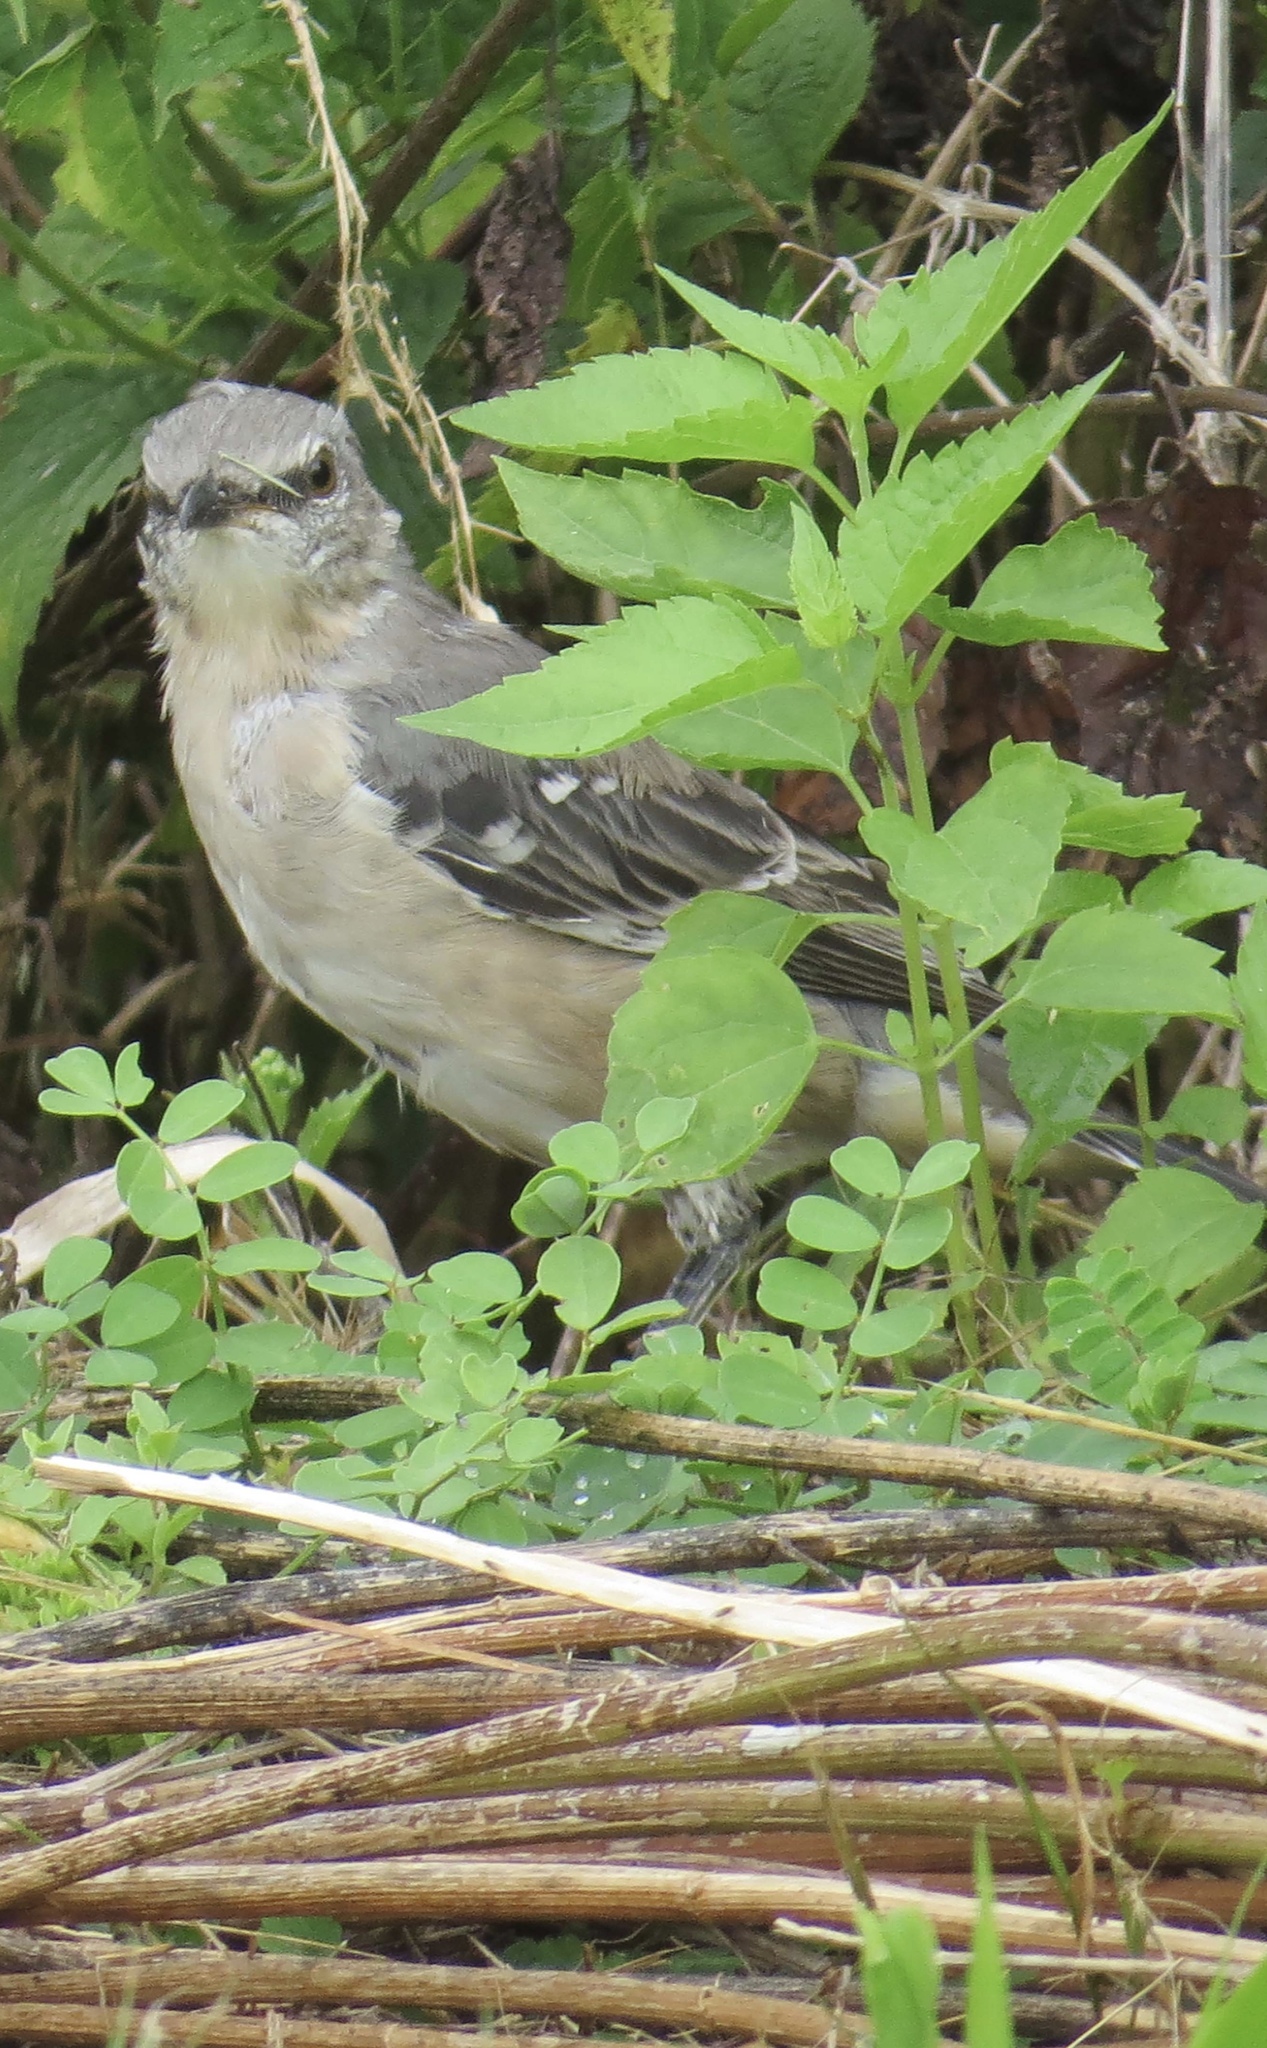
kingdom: Animalia
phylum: Chordata
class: Aves
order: Passeriformes
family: Mimidae
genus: Mimus
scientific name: Mimus polyglottos
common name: Northern mockingbird
